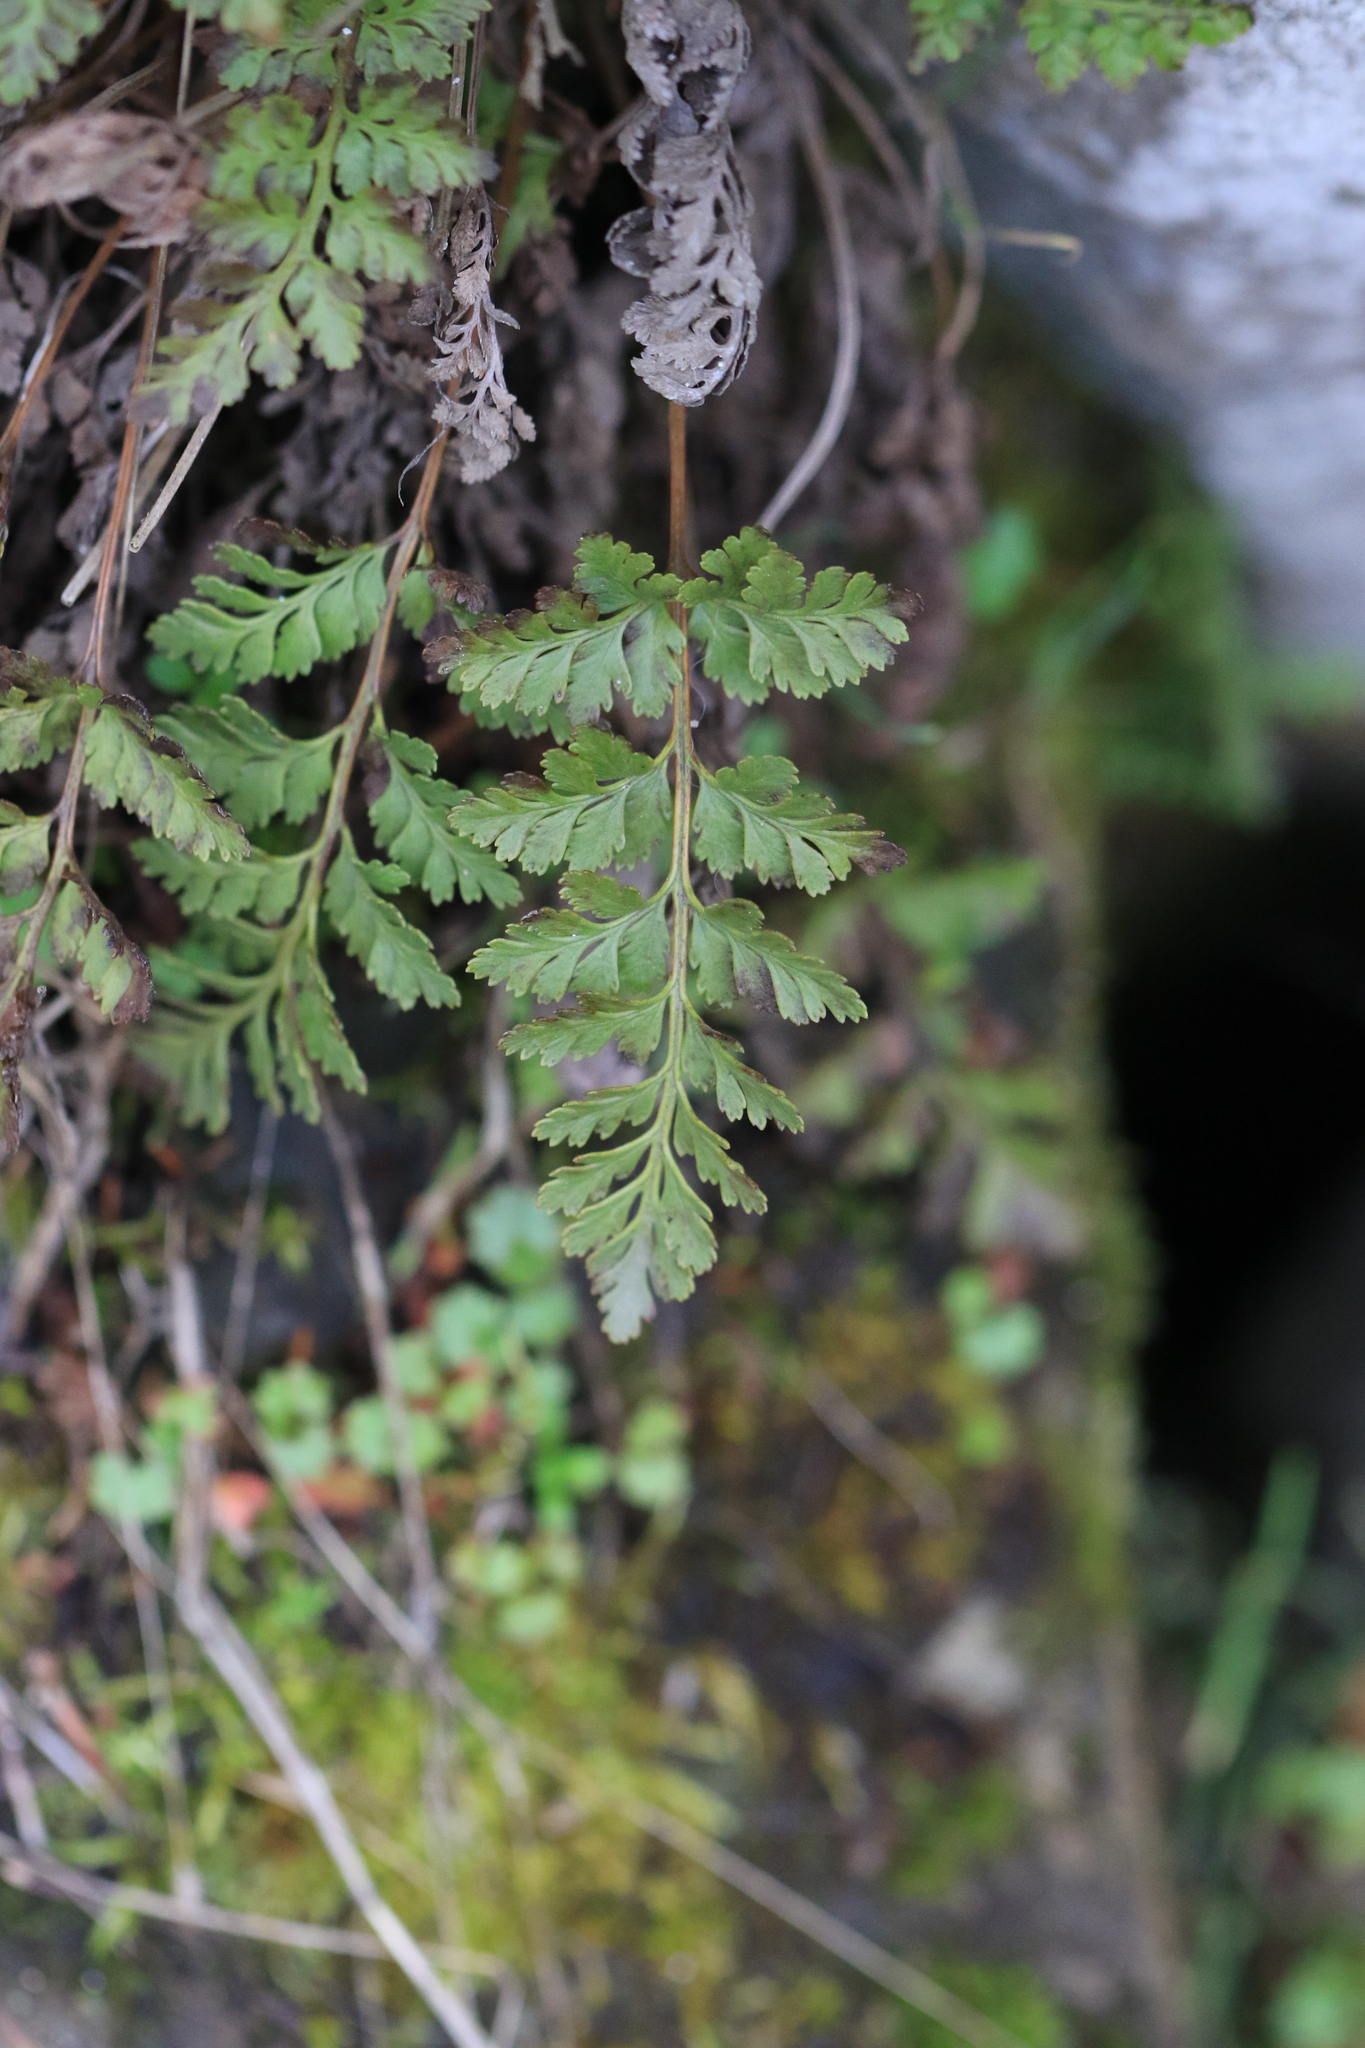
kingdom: Plantae
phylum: Tracheophyta
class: Polypodiopsida
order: Polypodiales
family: Pteridaceae
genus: Cryptogramma
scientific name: Cryptogramma acrostichoides
